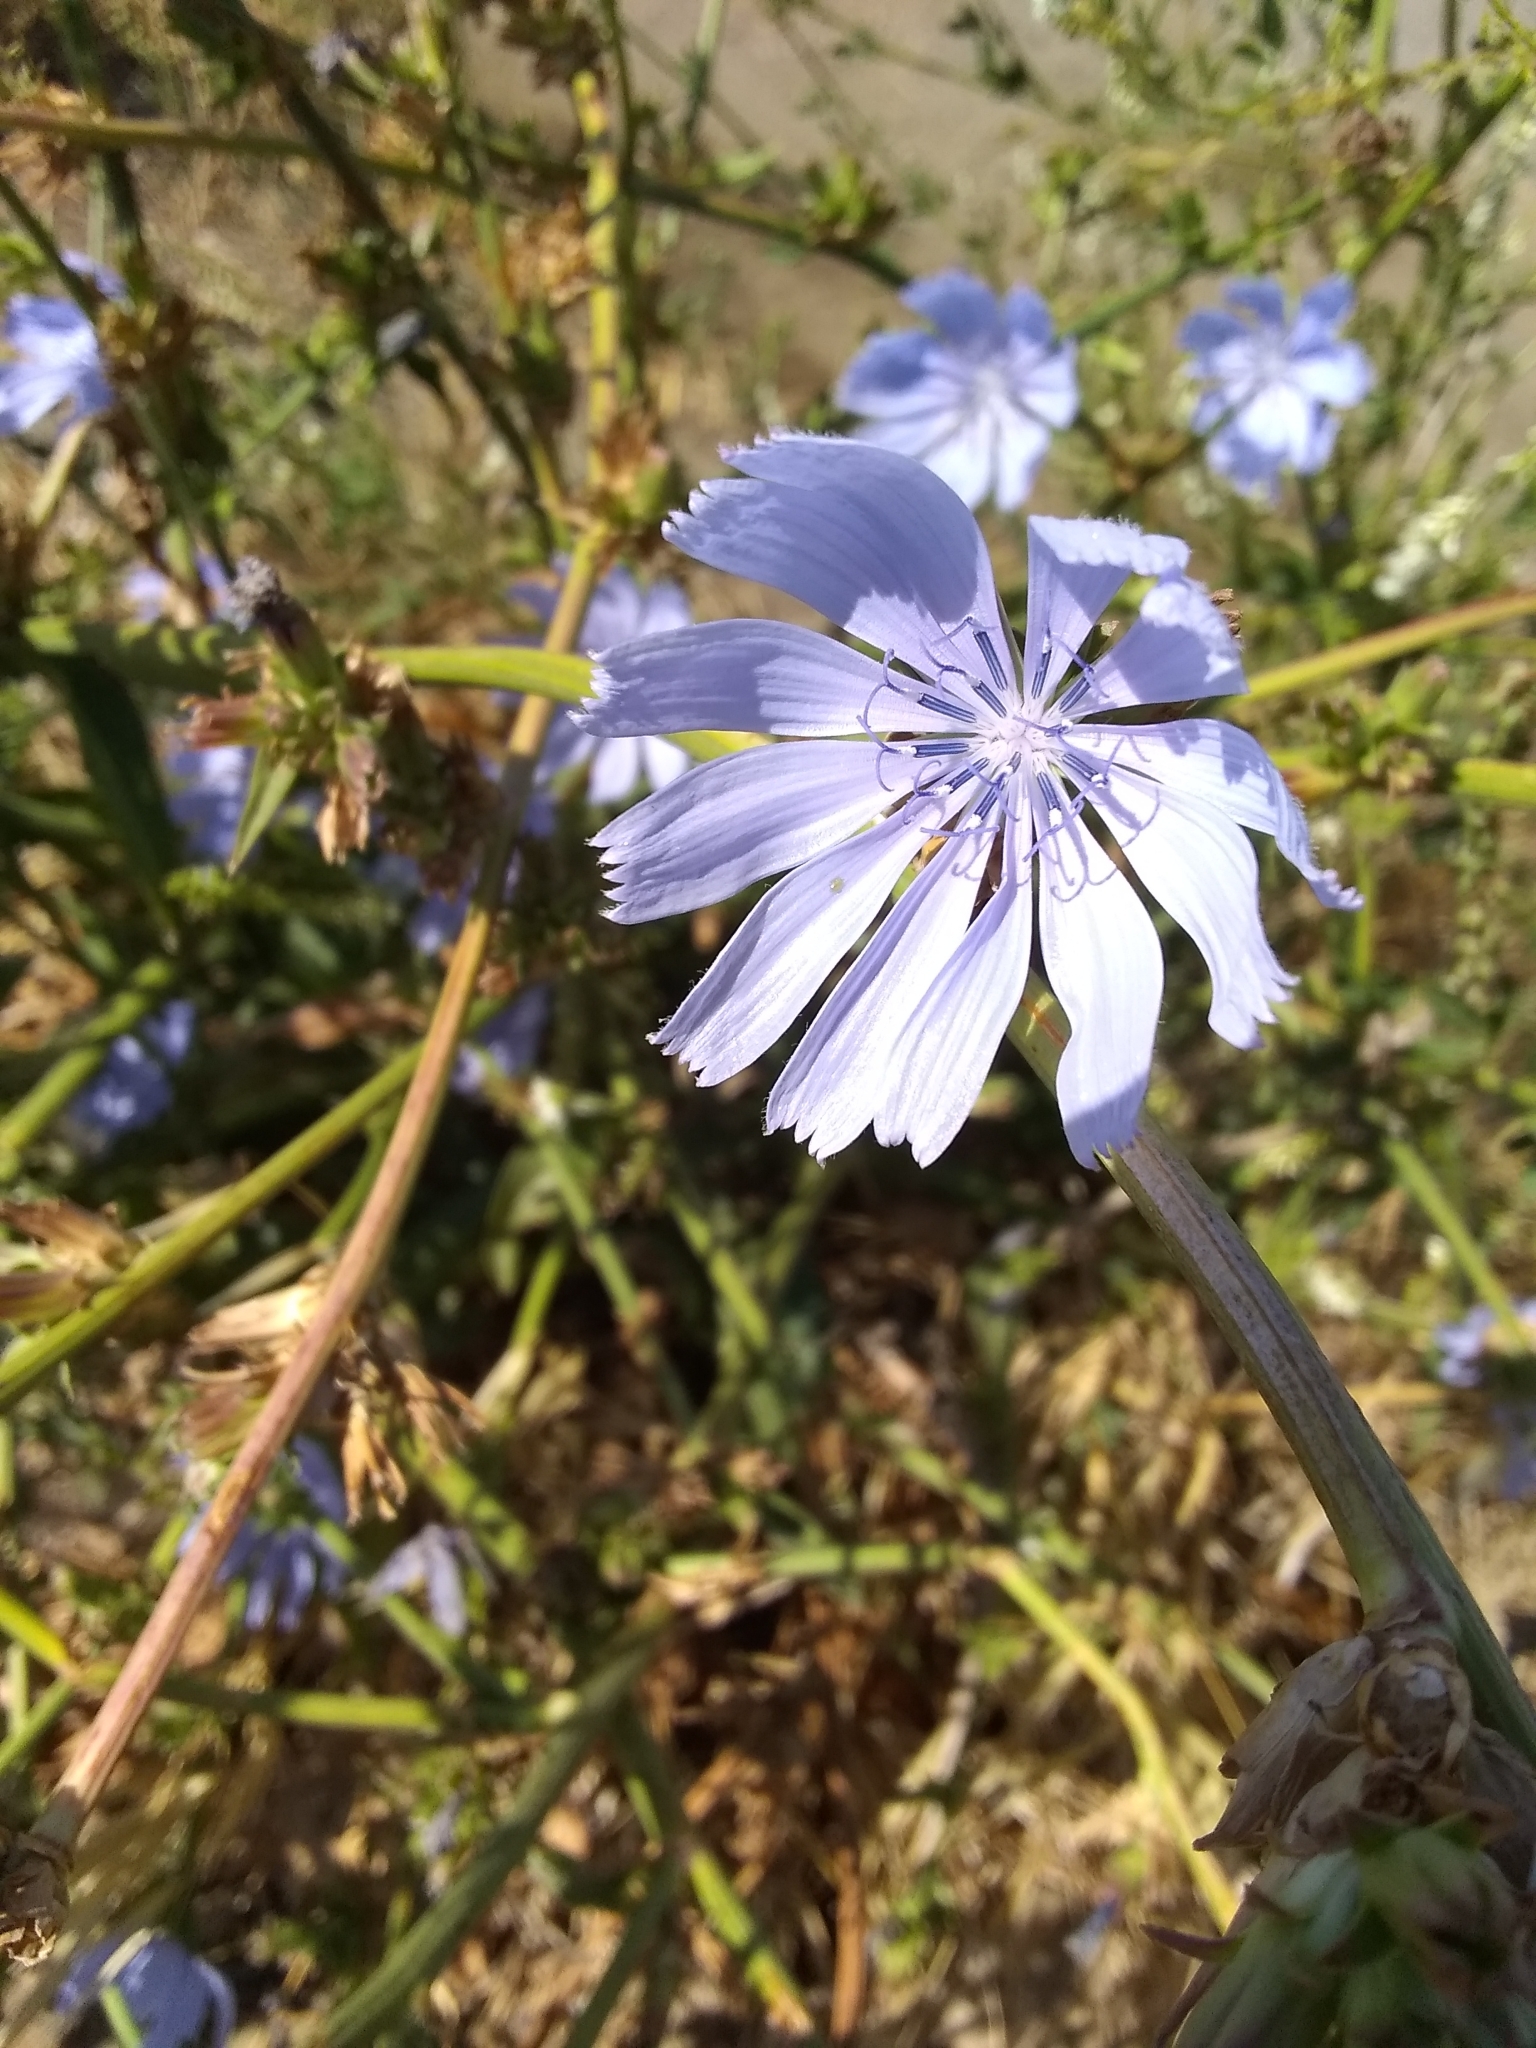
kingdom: Plantae
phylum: Tracheophyta
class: Magnoliopsida
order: Asterales
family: Asteraceae
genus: Cichorium
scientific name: Cichorium intybus
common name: Chicory
